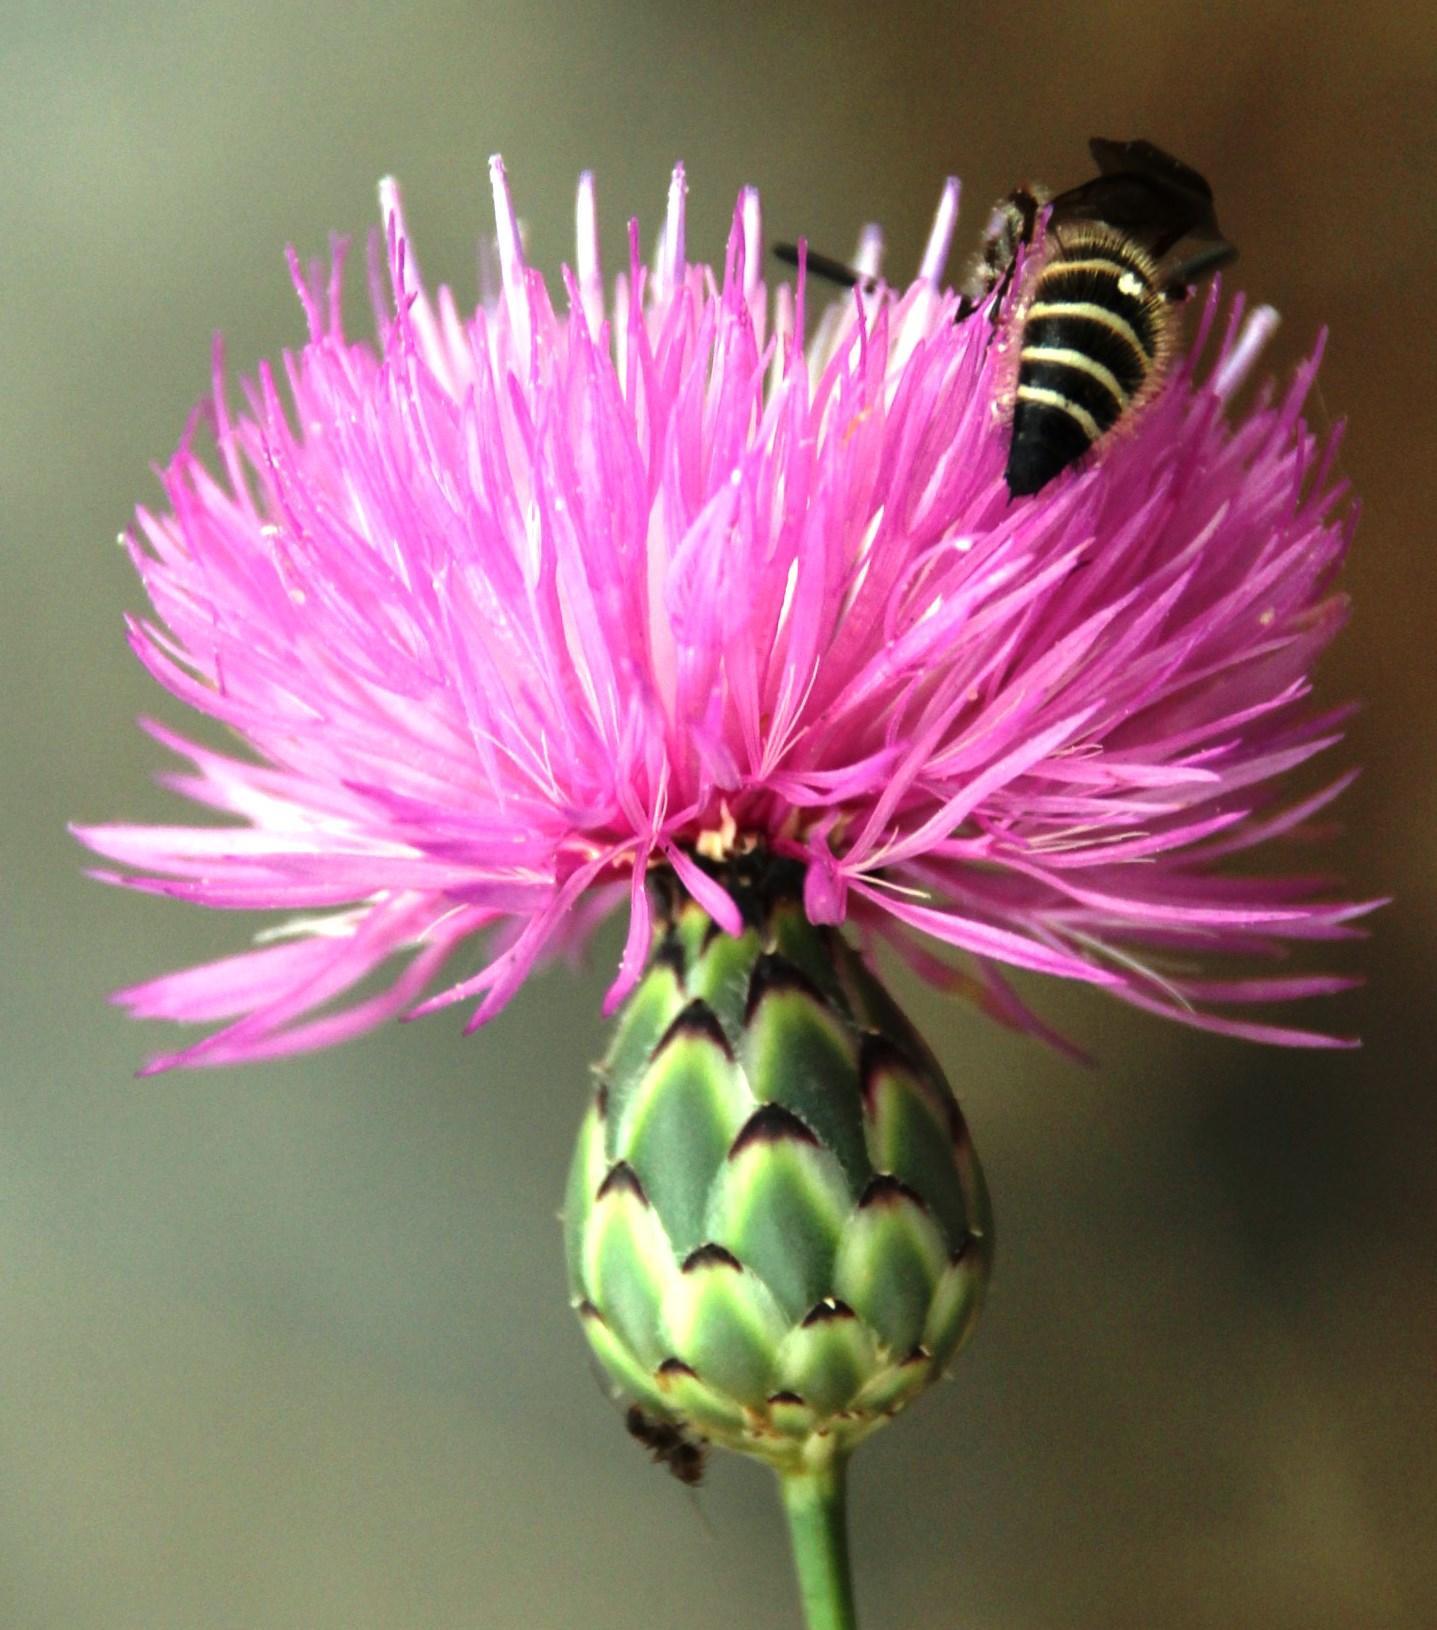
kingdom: Animalia
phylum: Arthropoda
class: Insecta
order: Hymenoptera
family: Scoliidae
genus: Colpa
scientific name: Colpa quinquecincta
